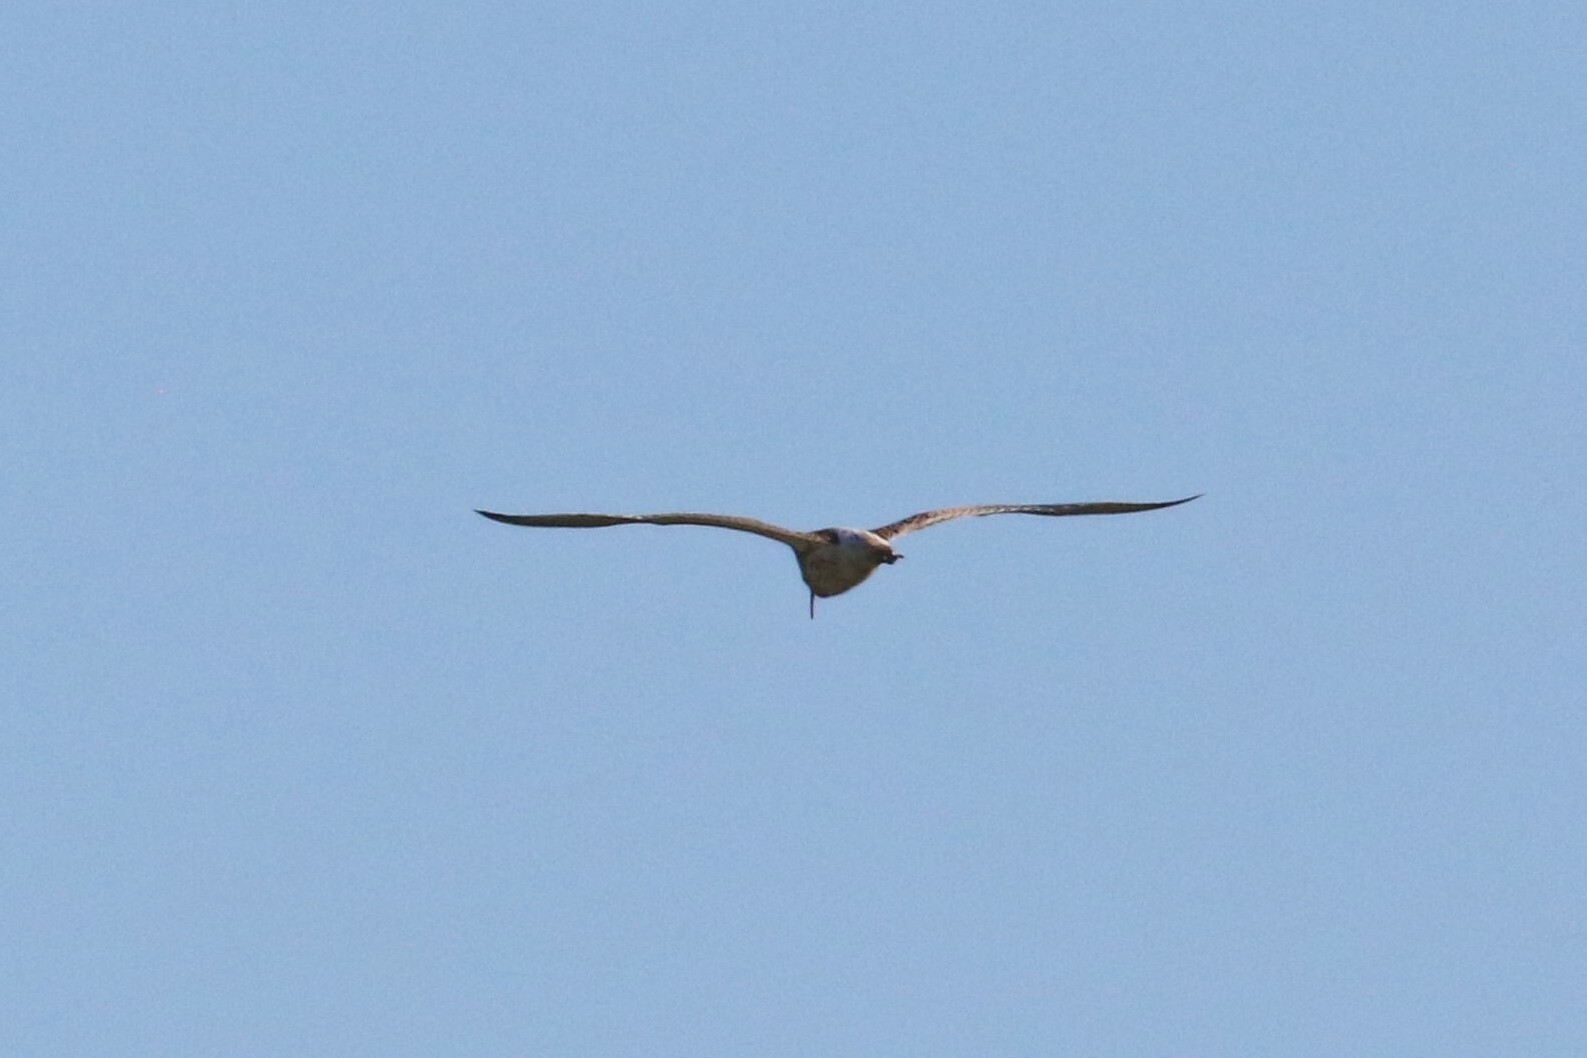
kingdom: Animalia
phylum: Chordata
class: Aves
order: Charadriiformes
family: Scolopacidae
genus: Numenius
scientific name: Numenius arquata
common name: Eurasian curlew
